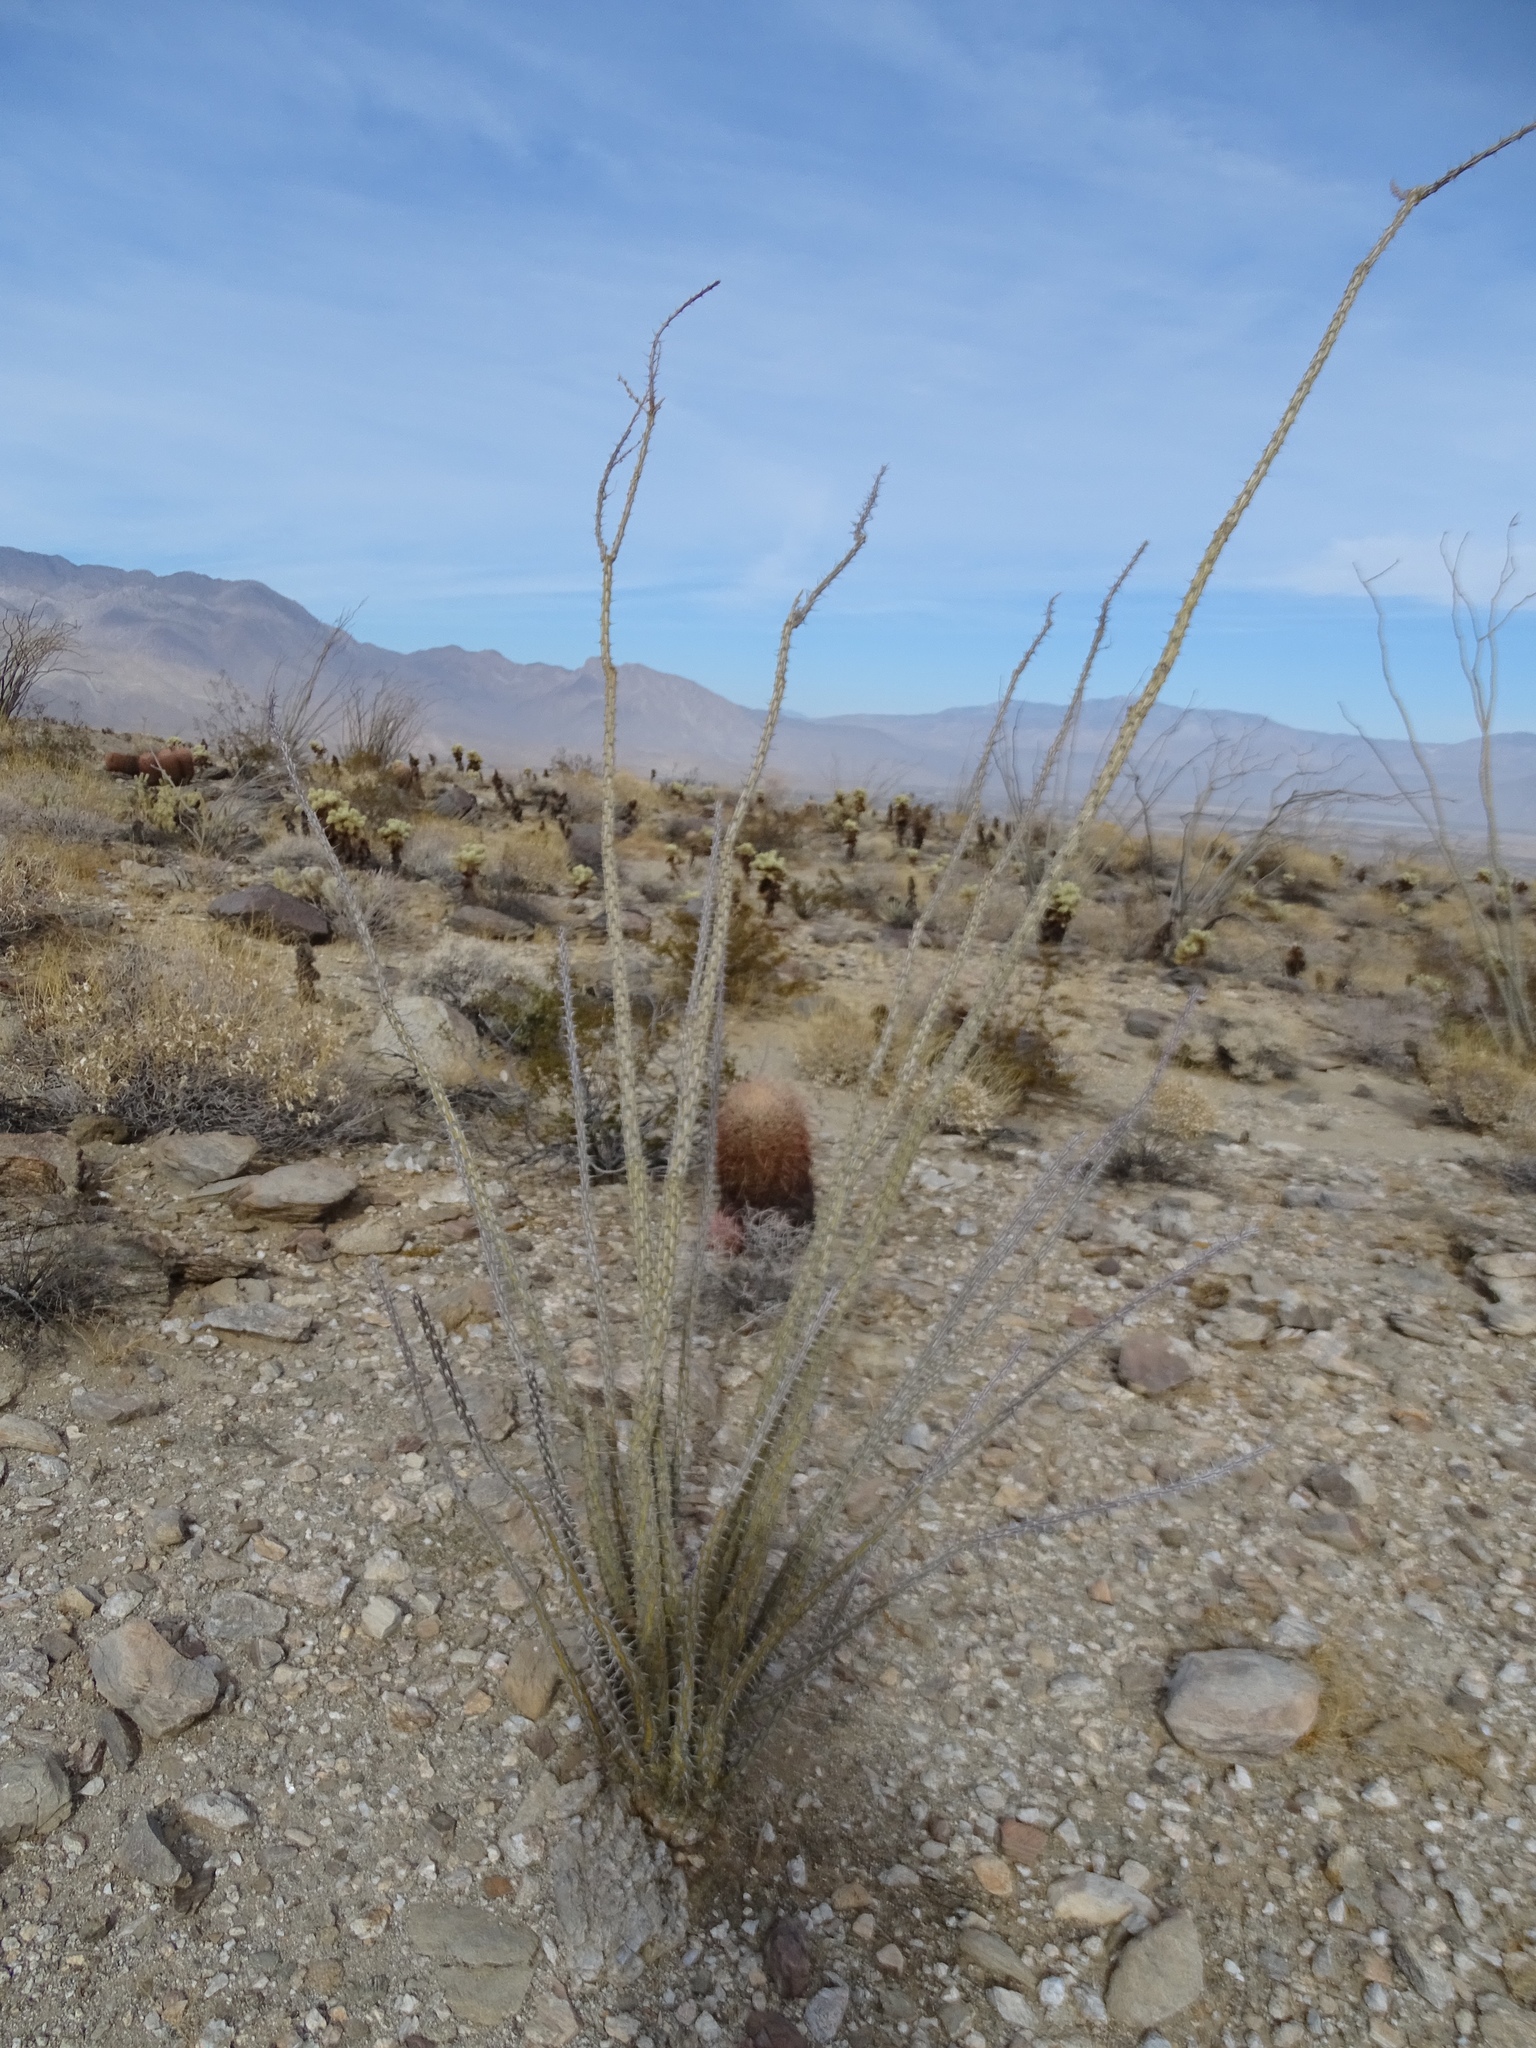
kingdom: Plantae
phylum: Tracheophyta
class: Magnoliopsida
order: Ericales
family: Fouquieriaceae
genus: Fouquieria
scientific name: Fouquieria splendens
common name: Vine-cactus
